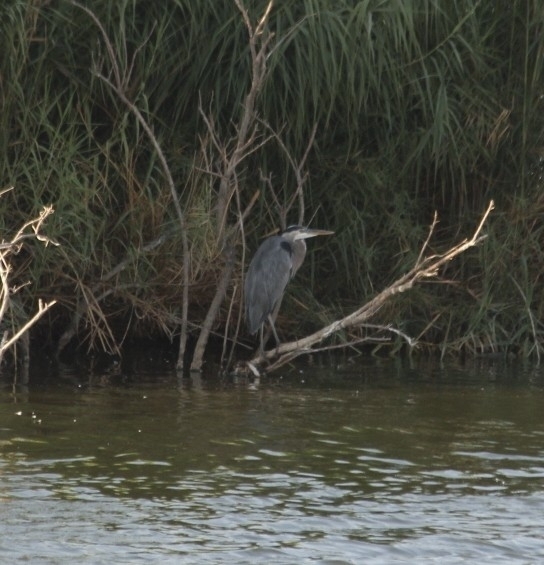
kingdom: Animalia
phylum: Chordata
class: Aves
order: Pelecaniformes
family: Ardeidae
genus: Ardea
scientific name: Ardea herodias
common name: Great blue heron
